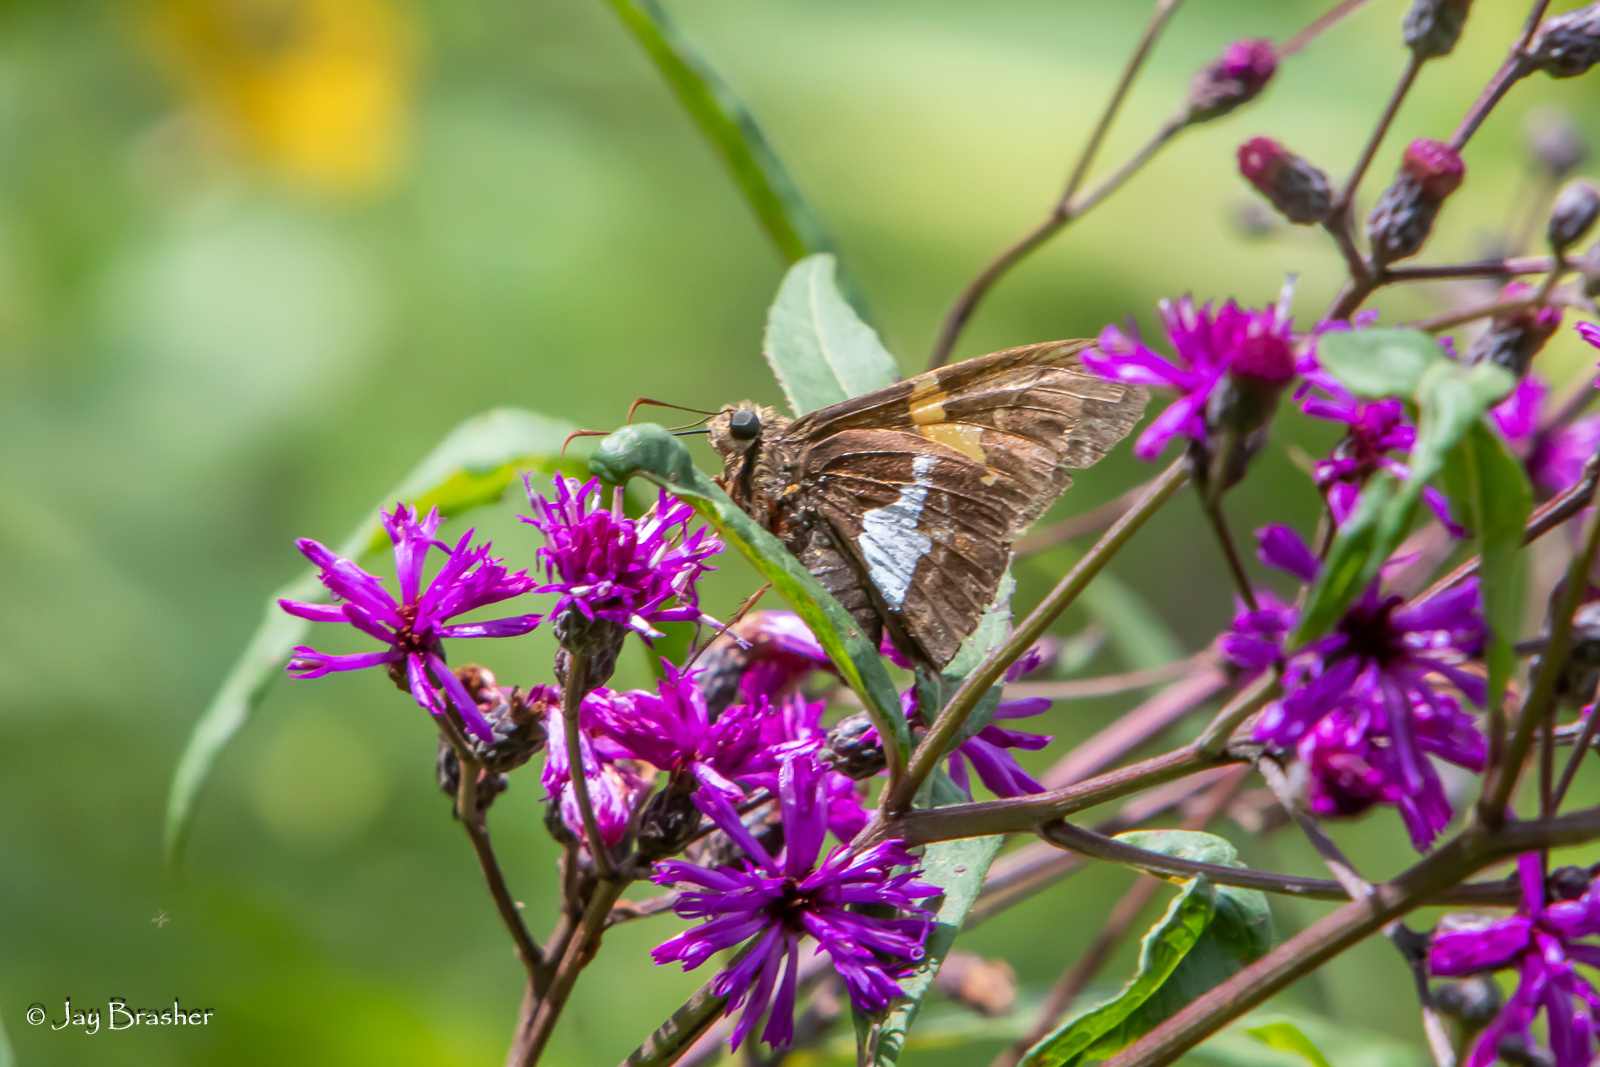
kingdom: Animalia
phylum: Arthropoda
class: Insecta
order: Lepidoptera
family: Hesperiidae
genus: Epargyreus
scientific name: Epargyreus clarus
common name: Silver-spotted skipper
